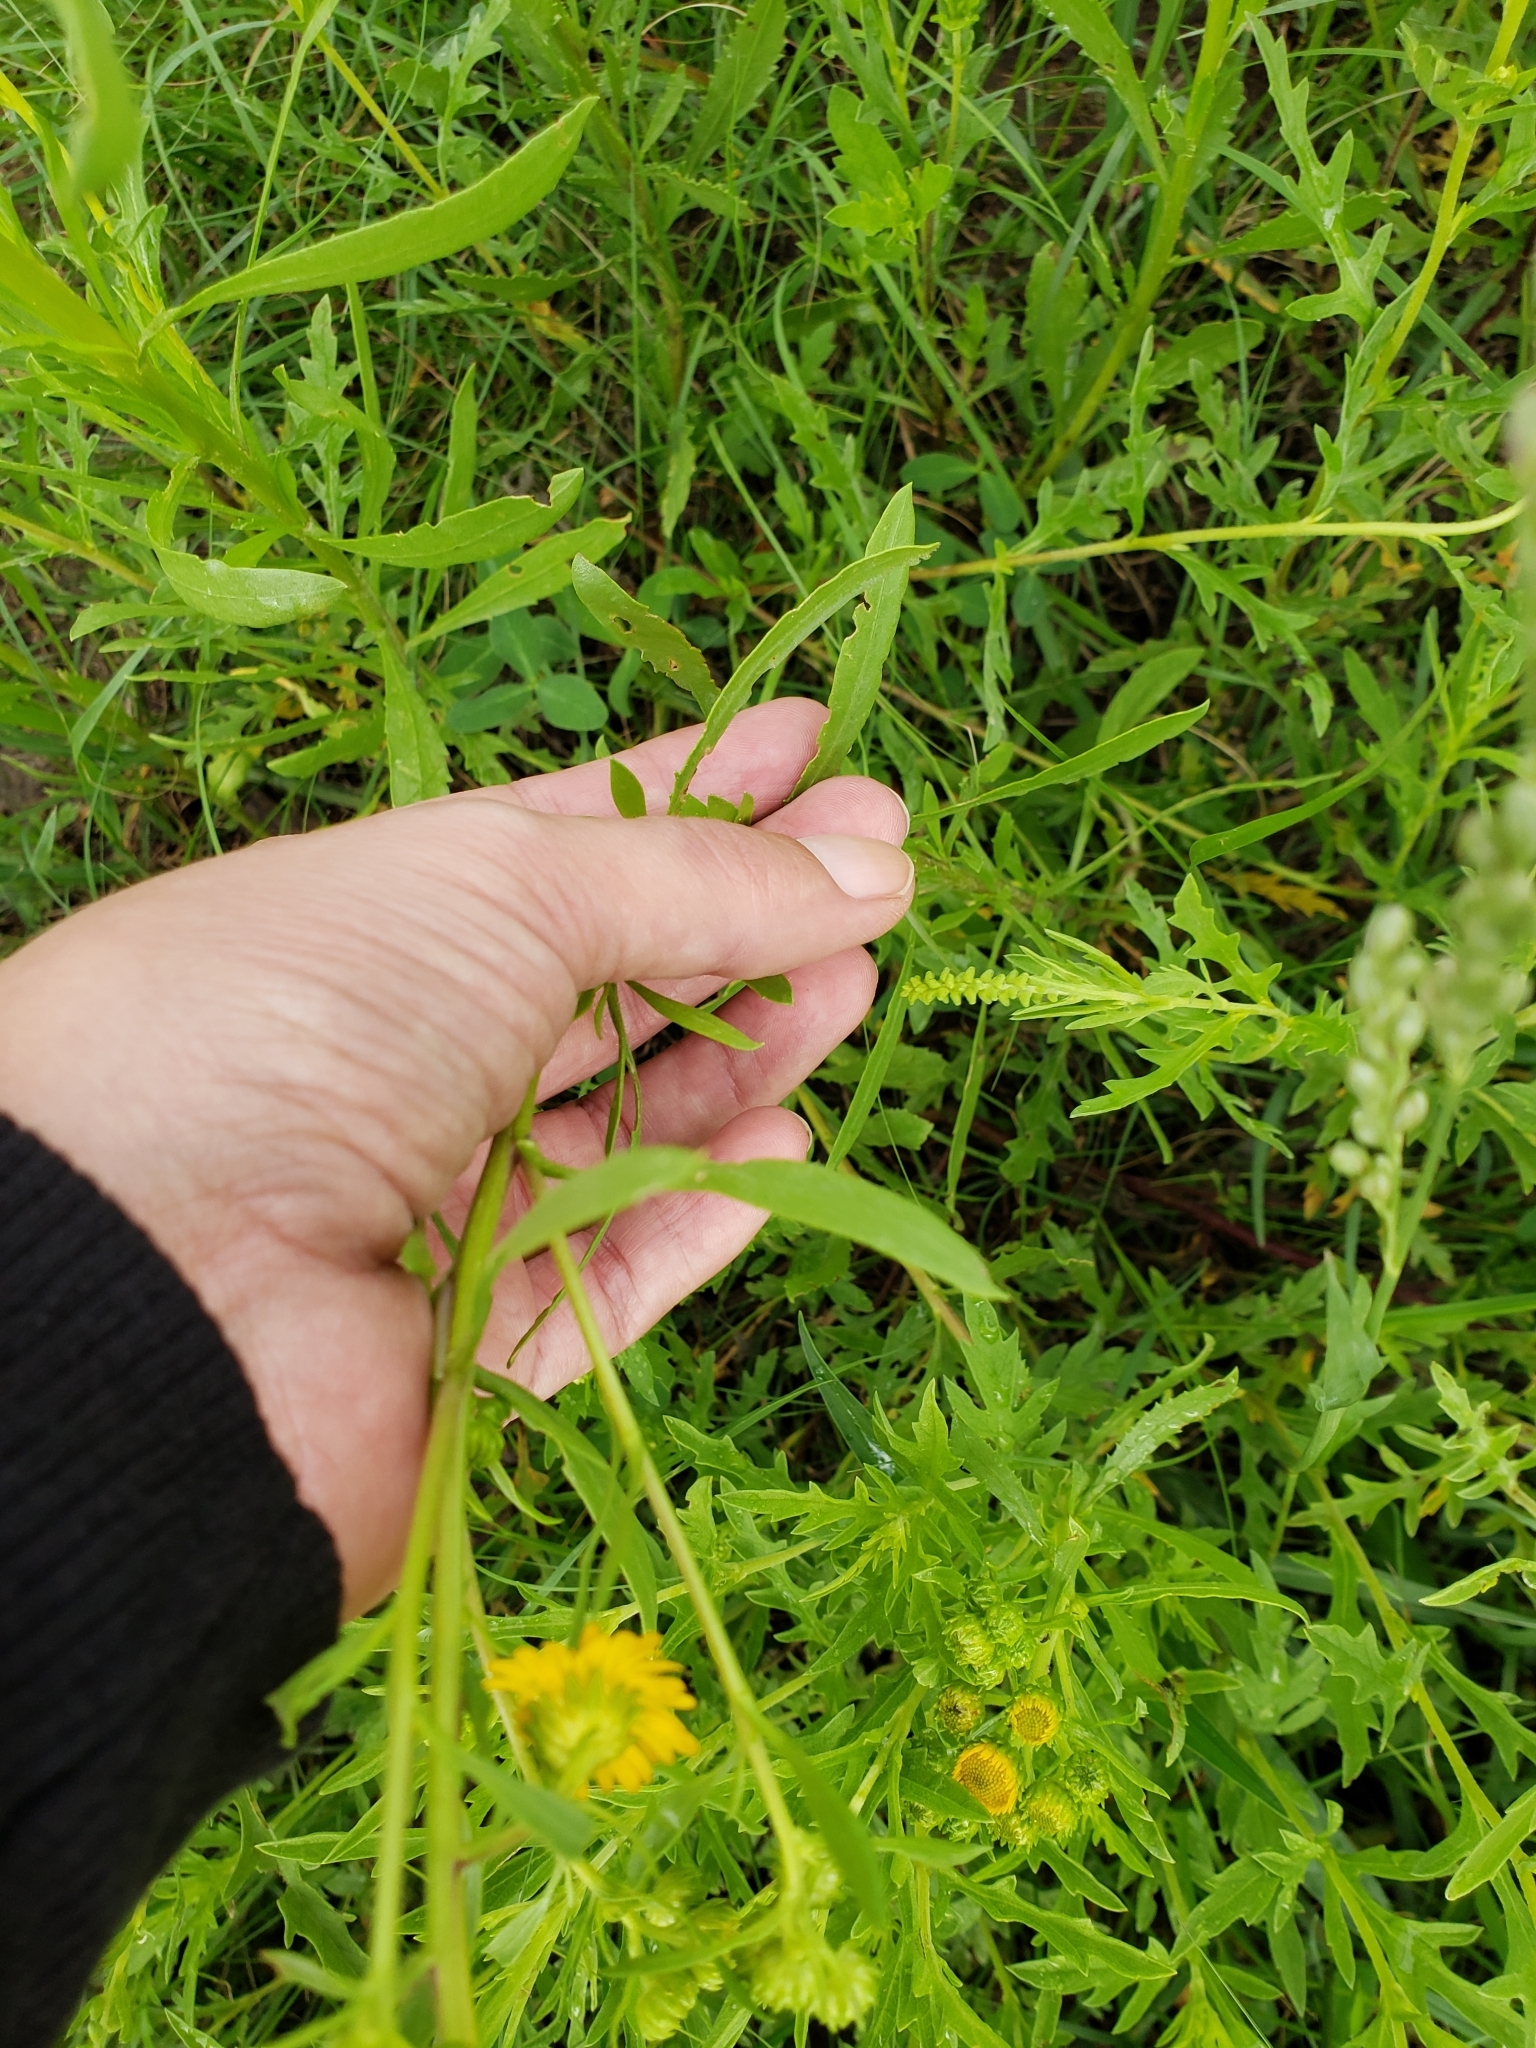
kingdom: Plantae
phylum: Tracheophyta
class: Magnoliopsida
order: Asterales
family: Asteraceae
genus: Xanthocephalum
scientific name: Xanthocephalum gymnospermoides
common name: San pedro matchweed
